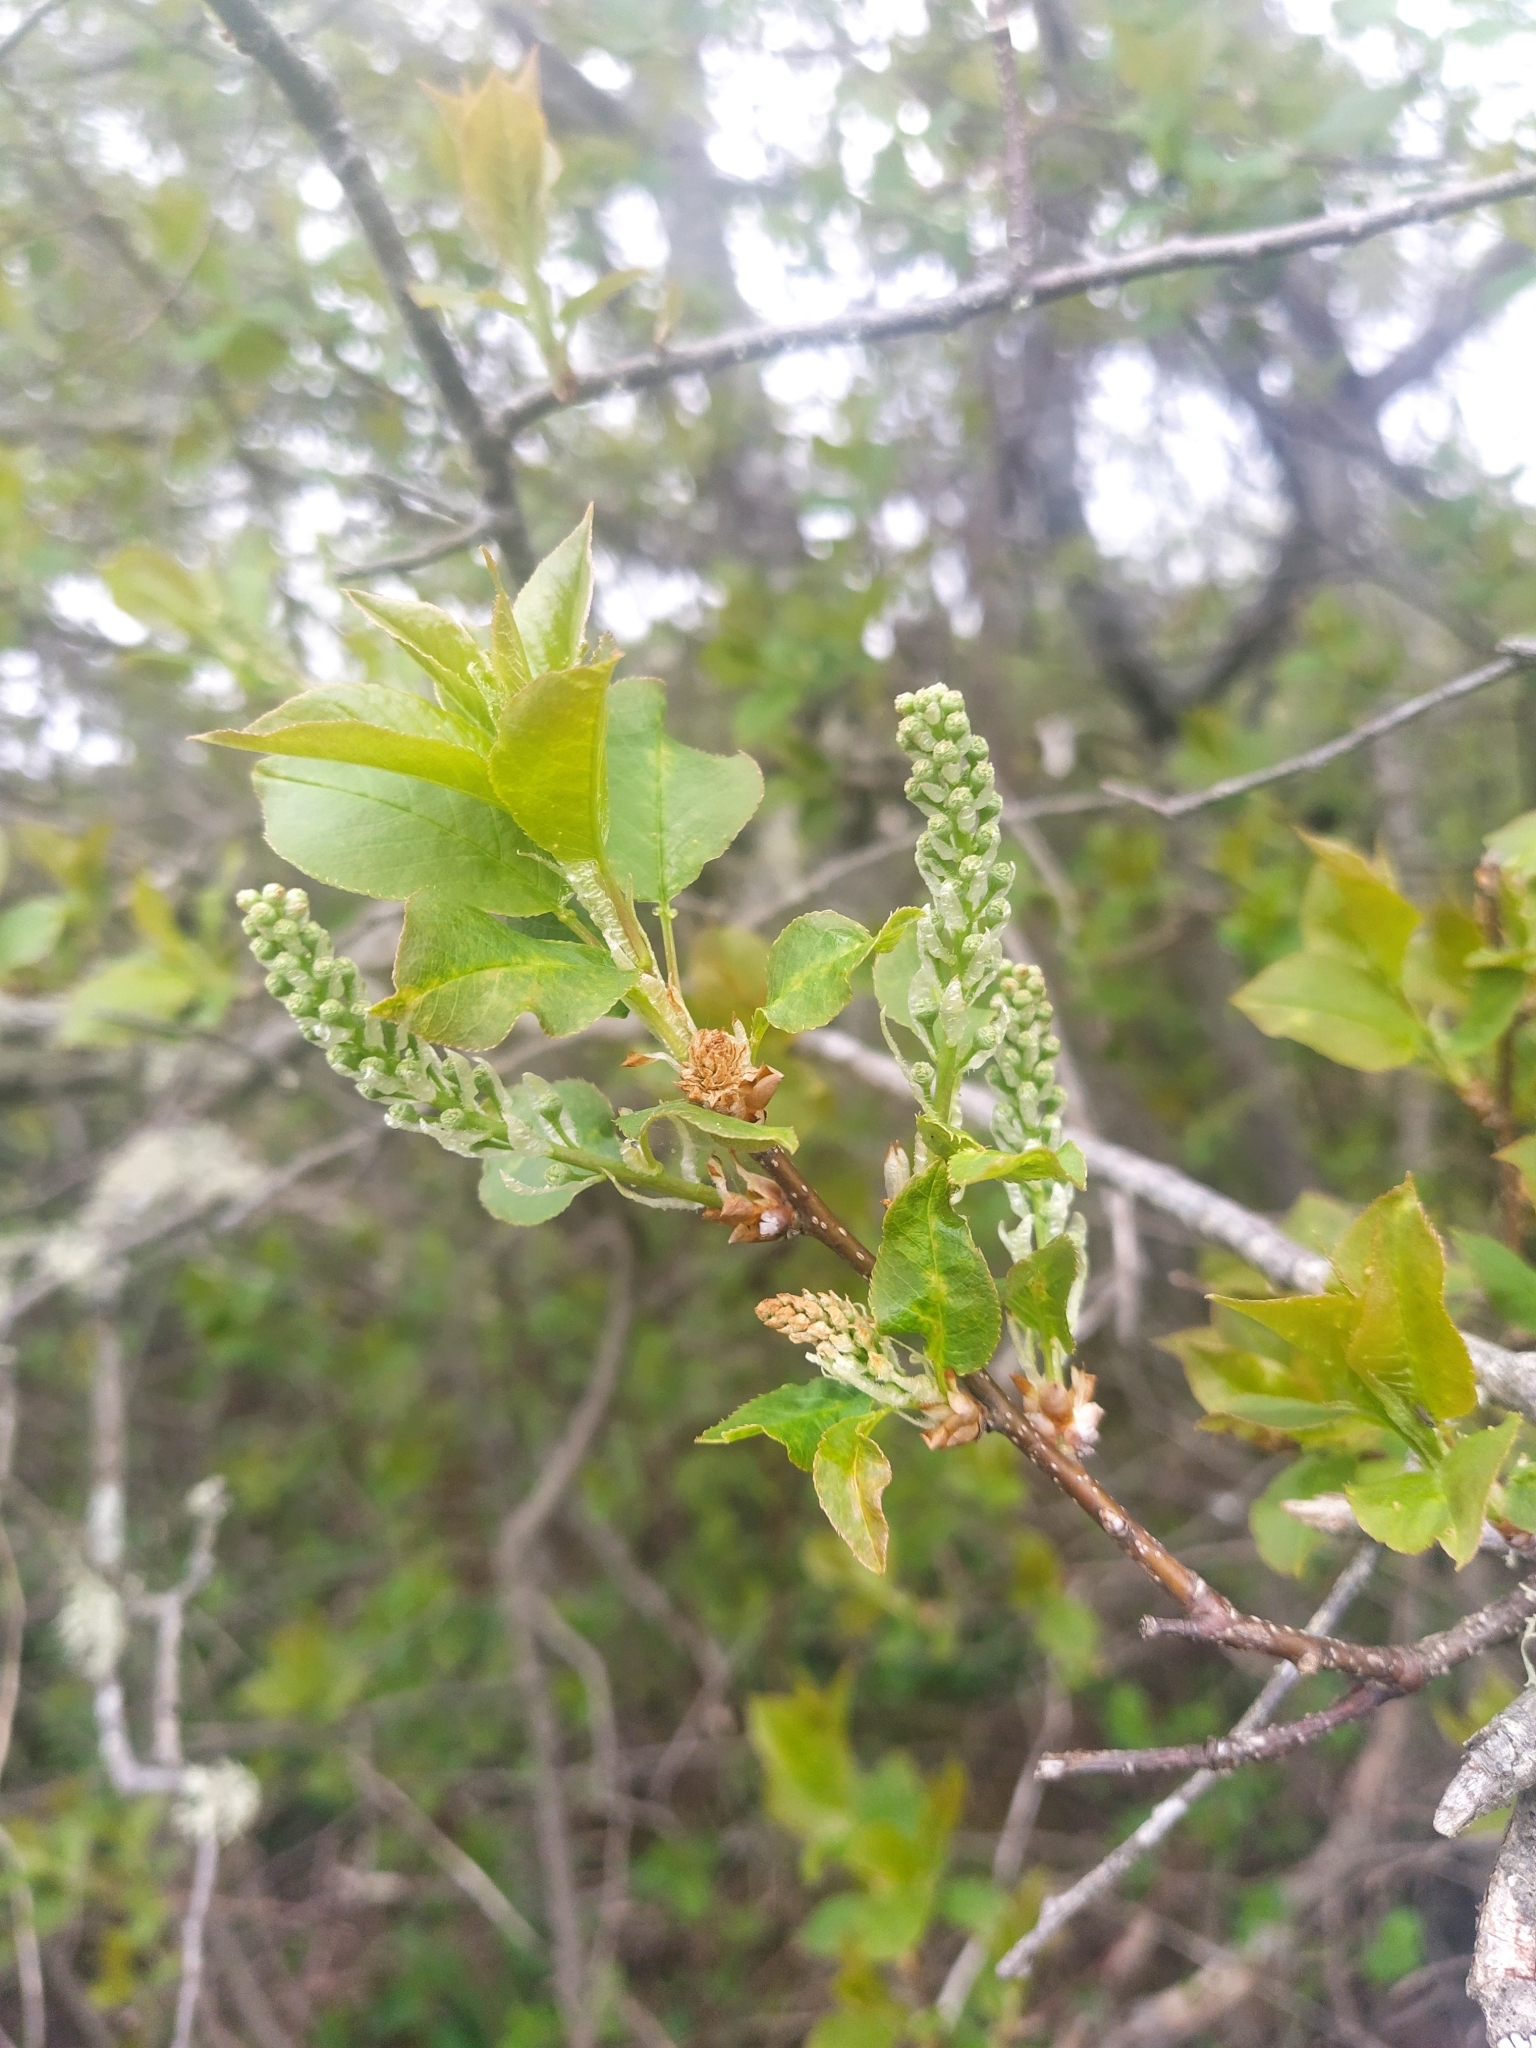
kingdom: Plantae
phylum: Tracheophyta
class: Magnoliopsida
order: Rosales
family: Rosaceae
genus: Prunus
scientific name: Prunus virginiana
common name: Chokecherry
